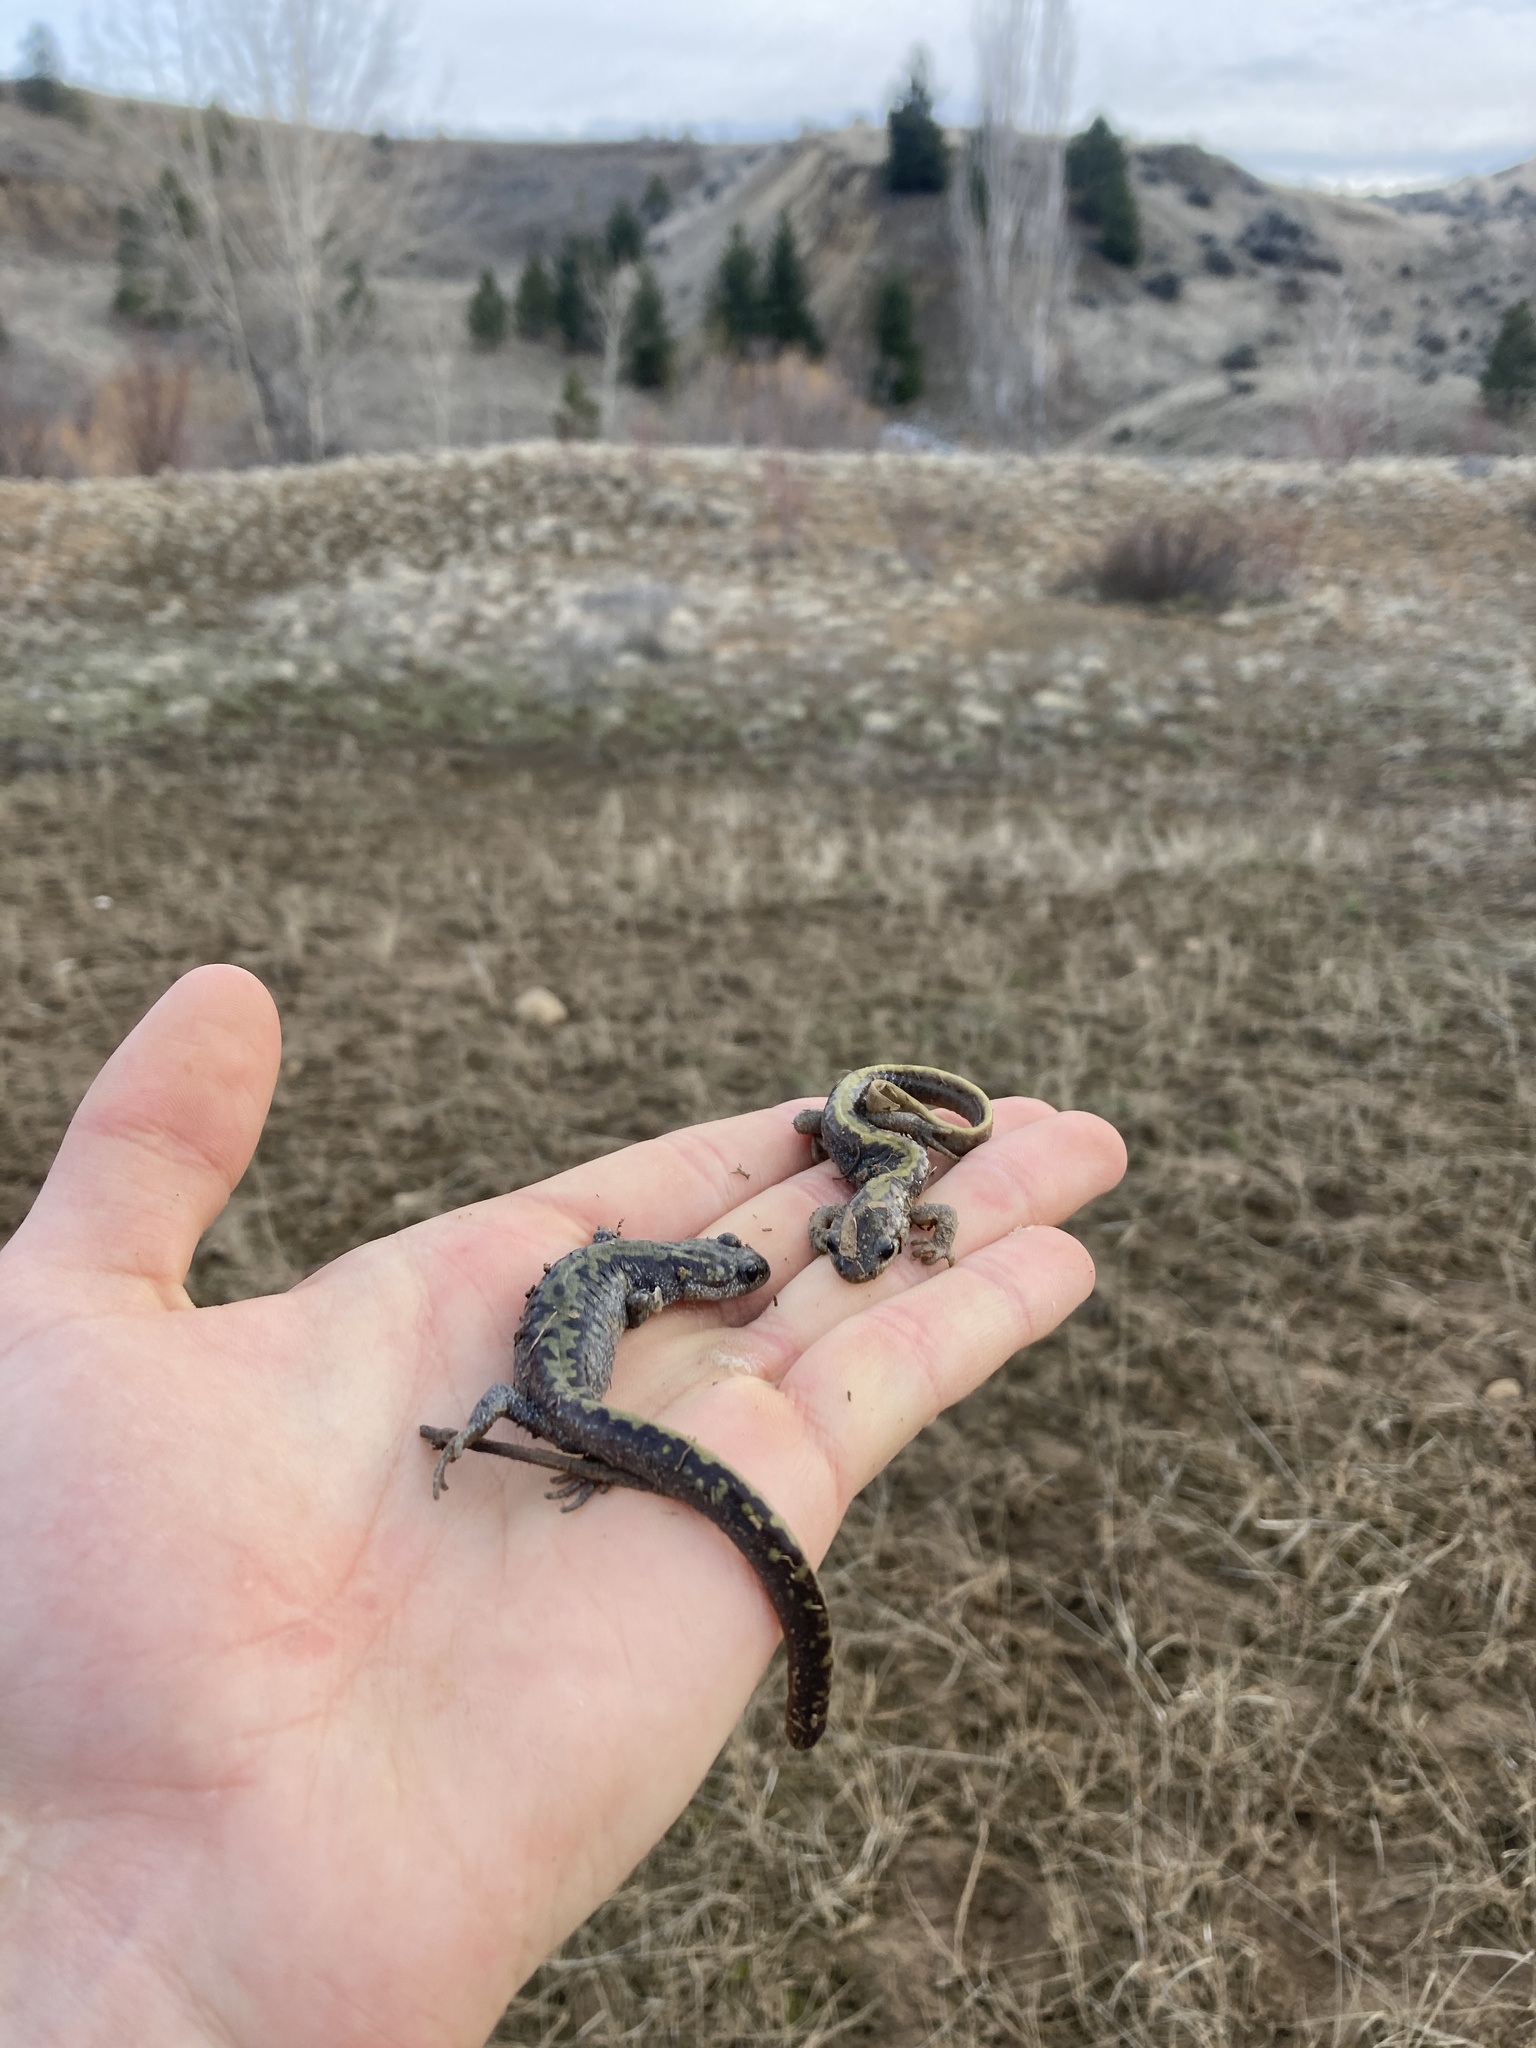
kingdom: Animalia
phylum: Chordata
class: Amphibia
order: Caudata
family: Ambystomatidae
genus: Ambystoma
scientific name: Ambystoma macrodactylum
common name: Long-toed salamander
